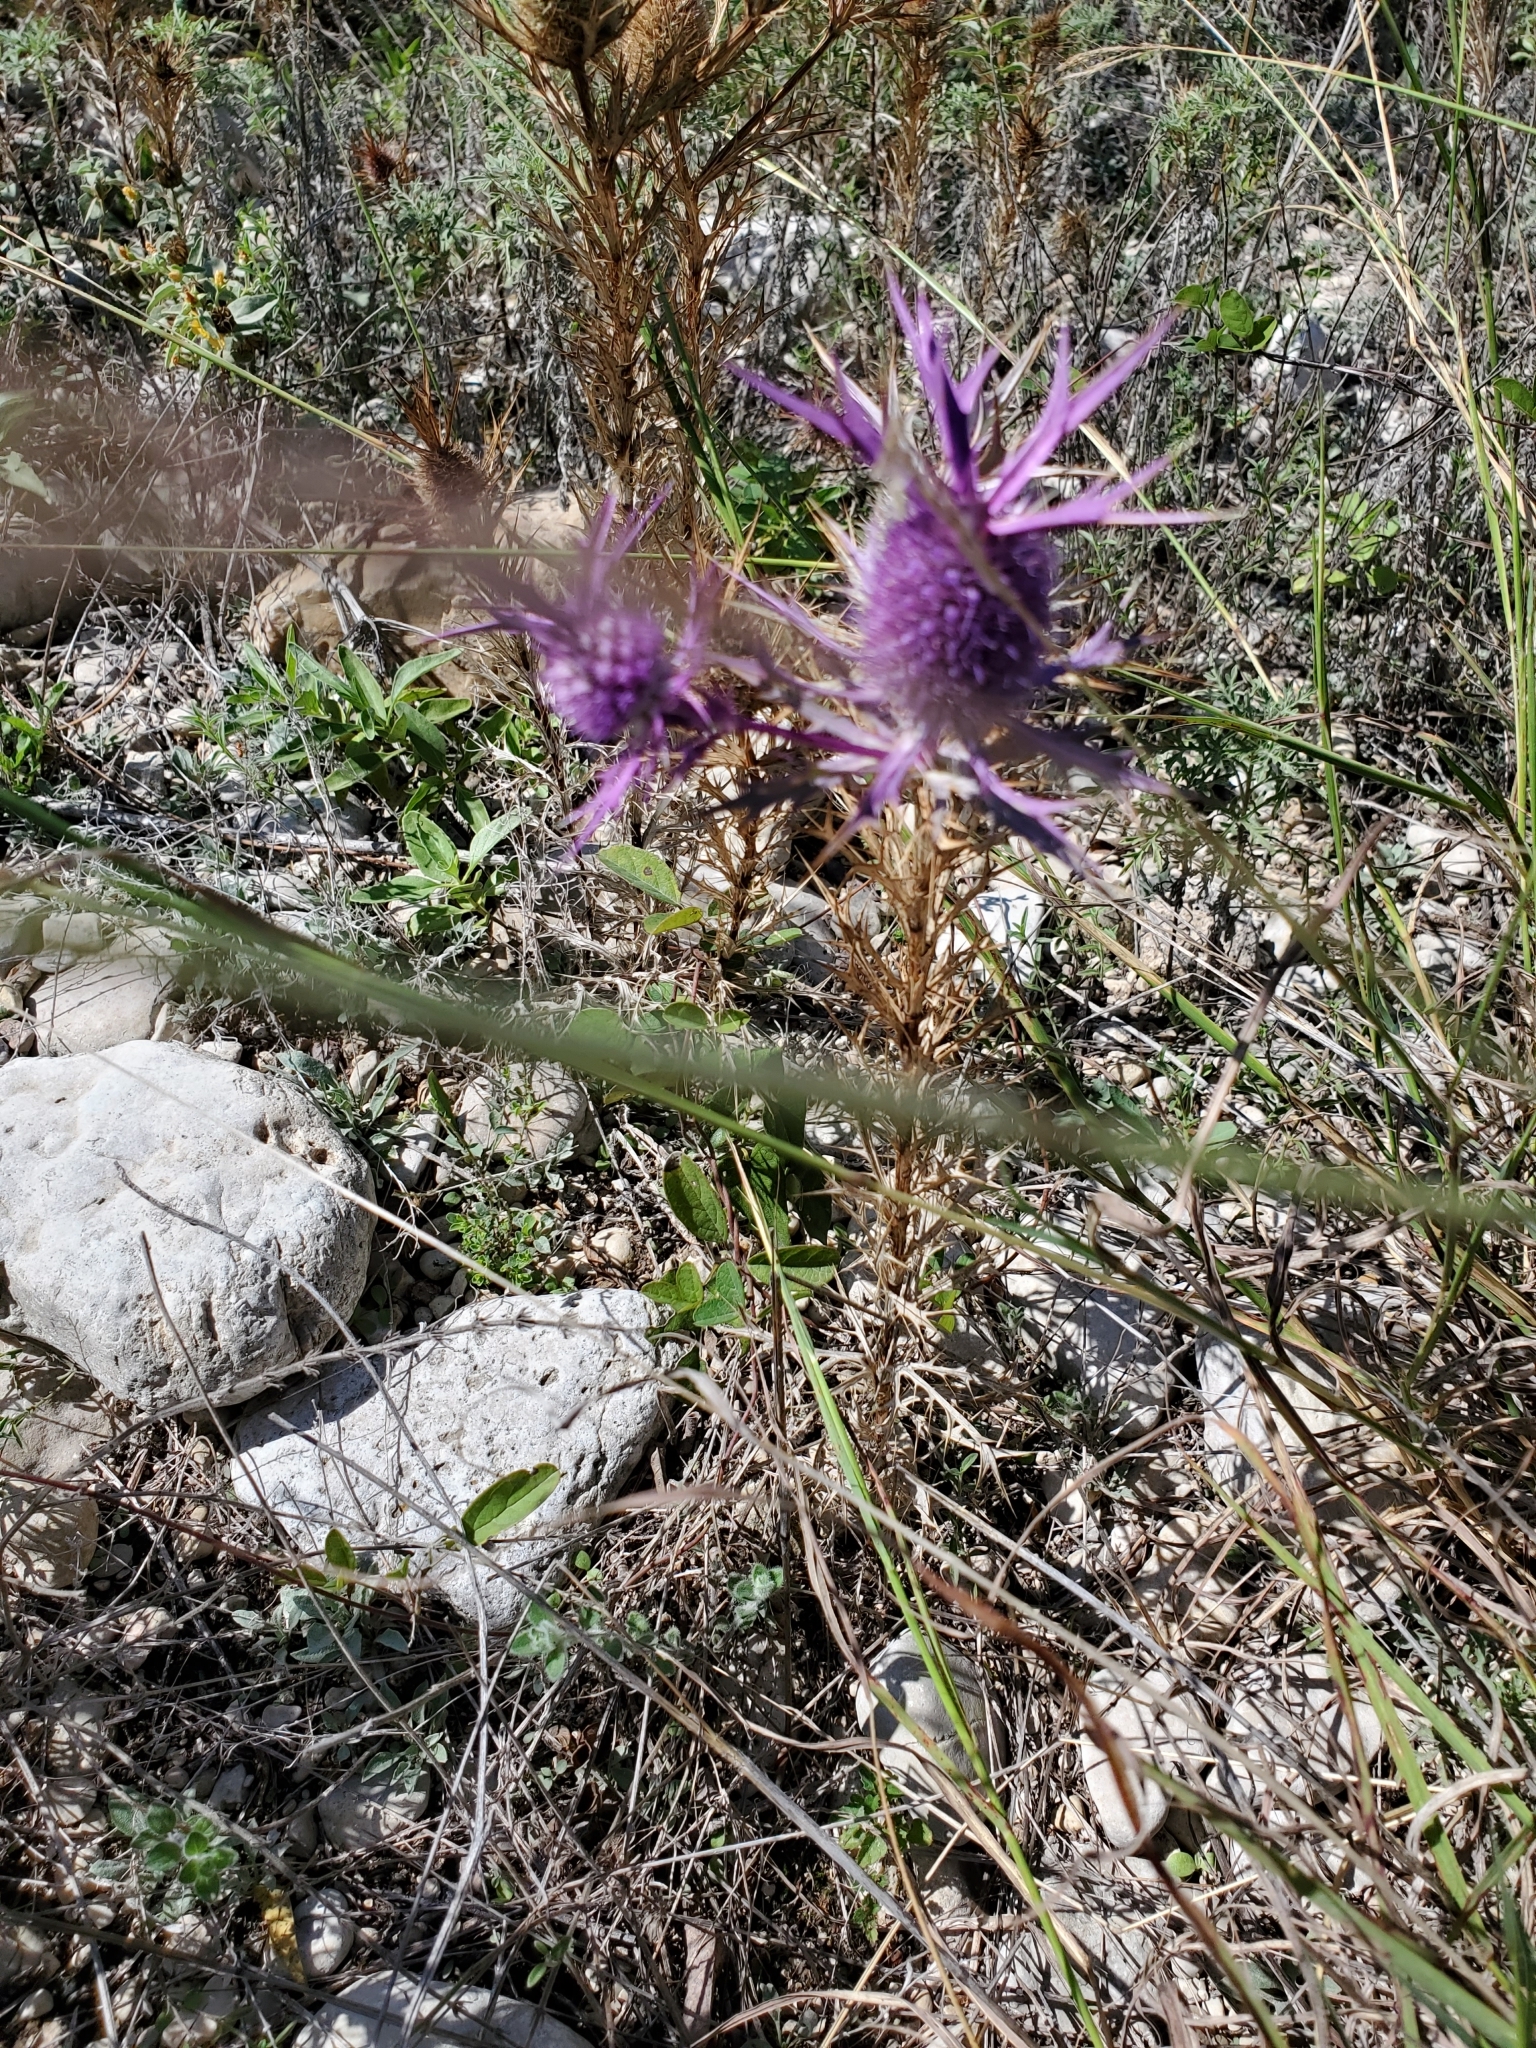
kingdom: Plantae
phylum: Tracheophyta
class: Magnoliopsida
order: Apiales
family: Apiaceae
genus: Eryngium
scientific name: Eryngium leavenworthii
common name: Leavenworth's eryngo
